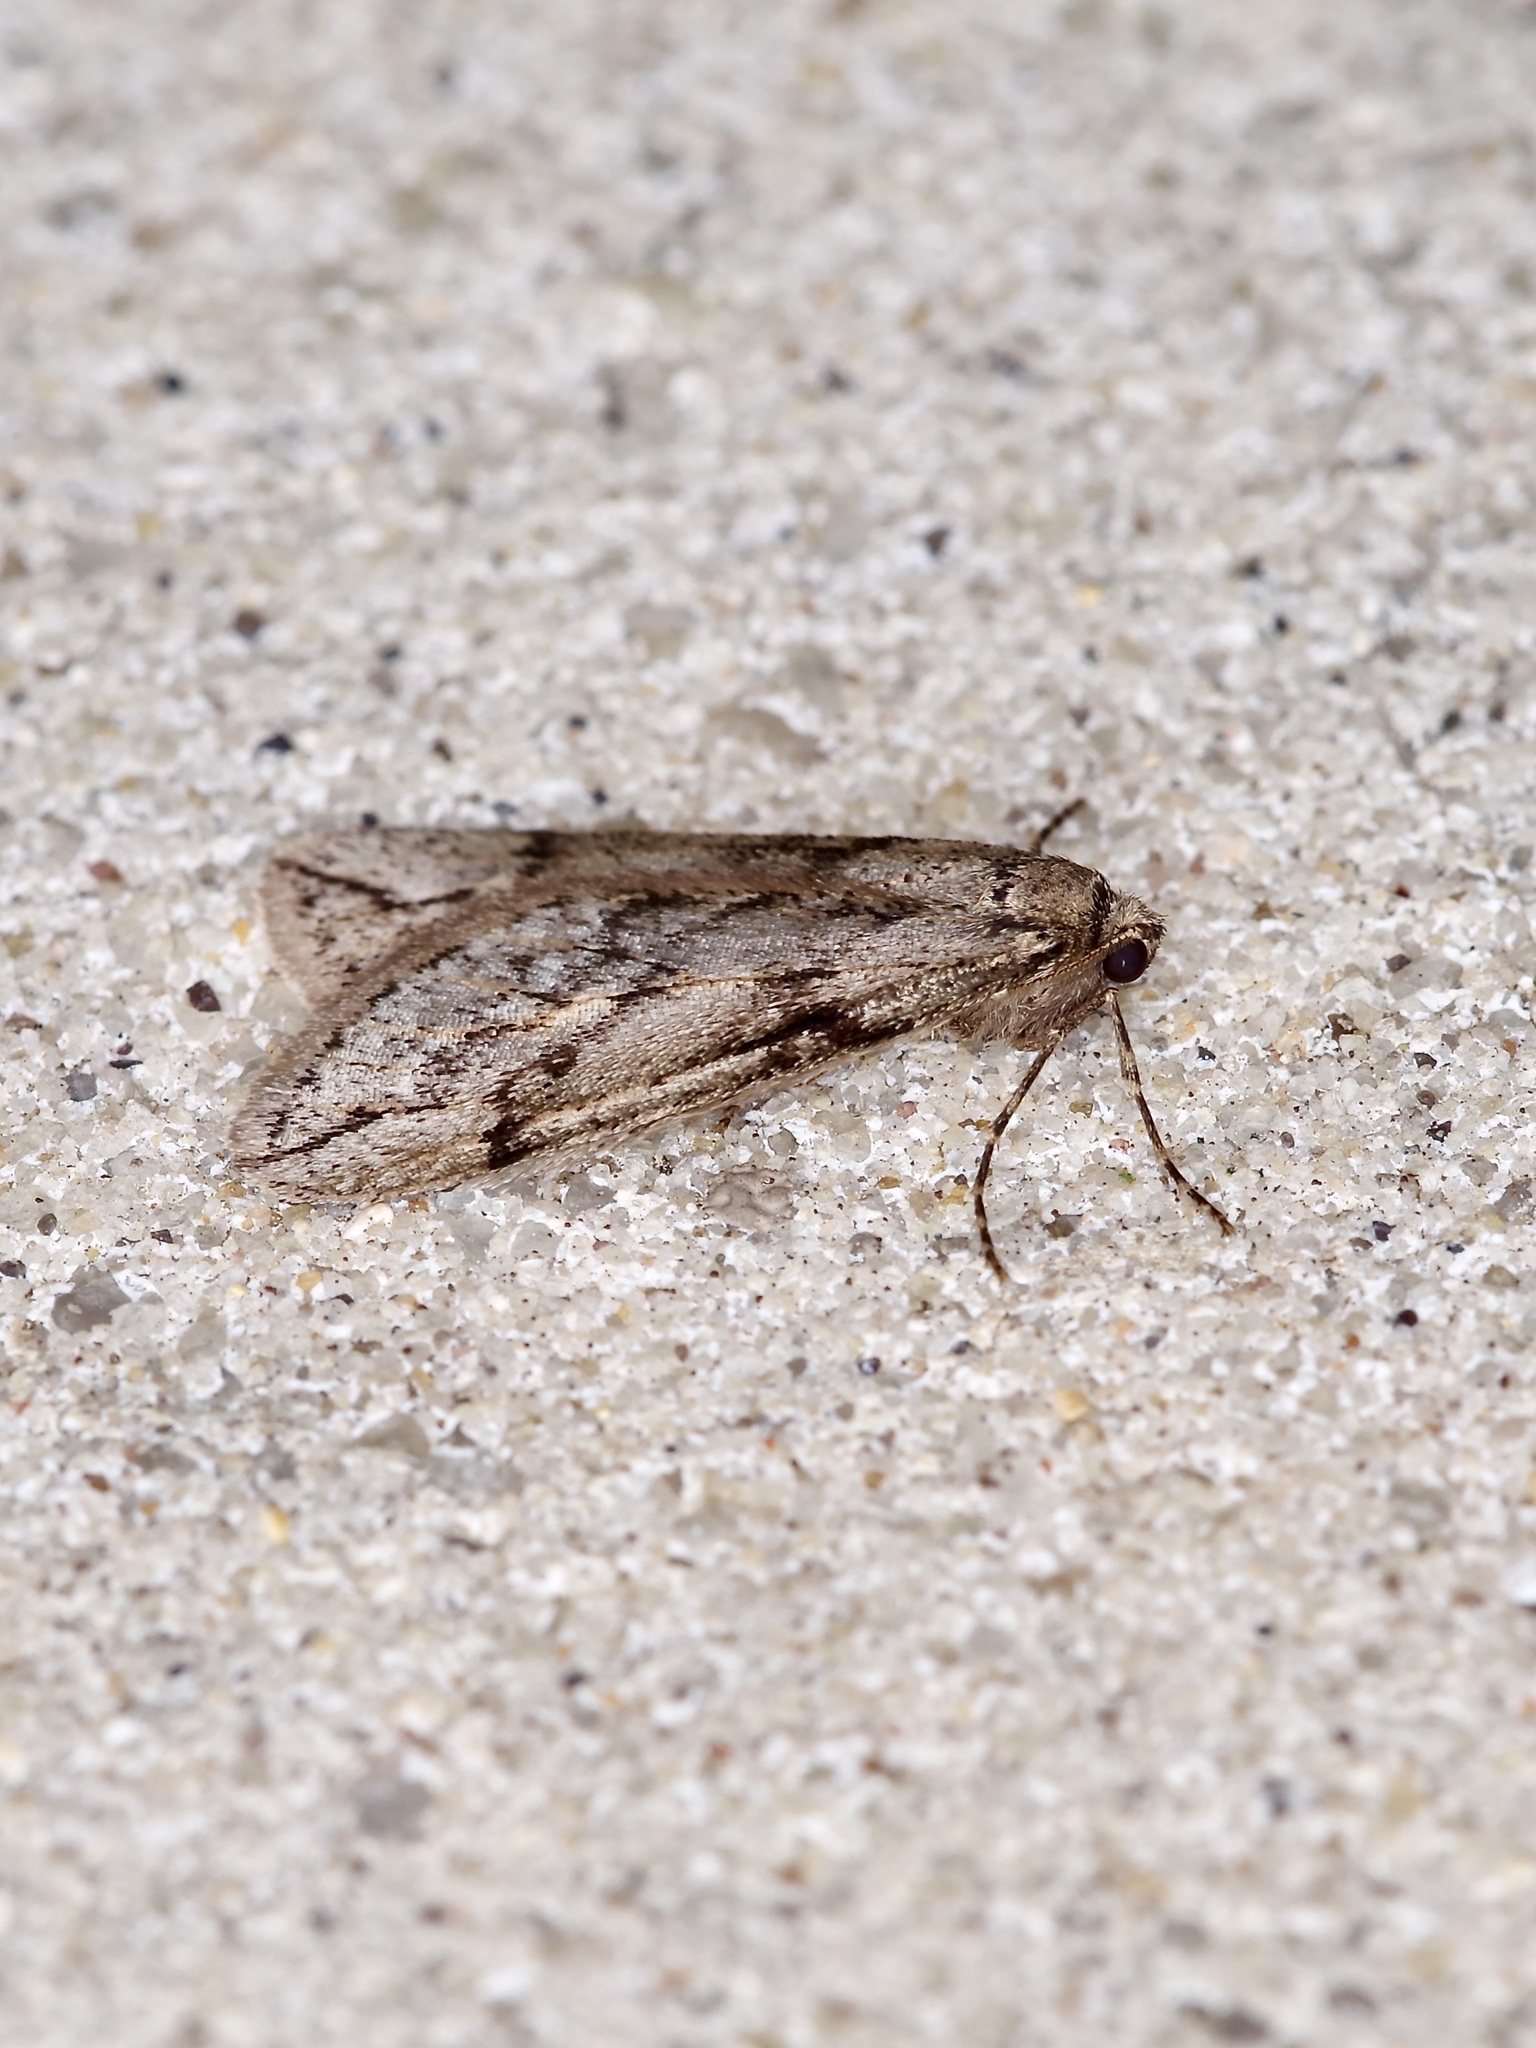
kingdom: Animalia
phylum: Arthropoda
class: Insecta
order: Lepidoptera
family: Geometridae
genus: Paleacrita
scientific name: Paleacrita vernata
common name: Spring cankerworm
